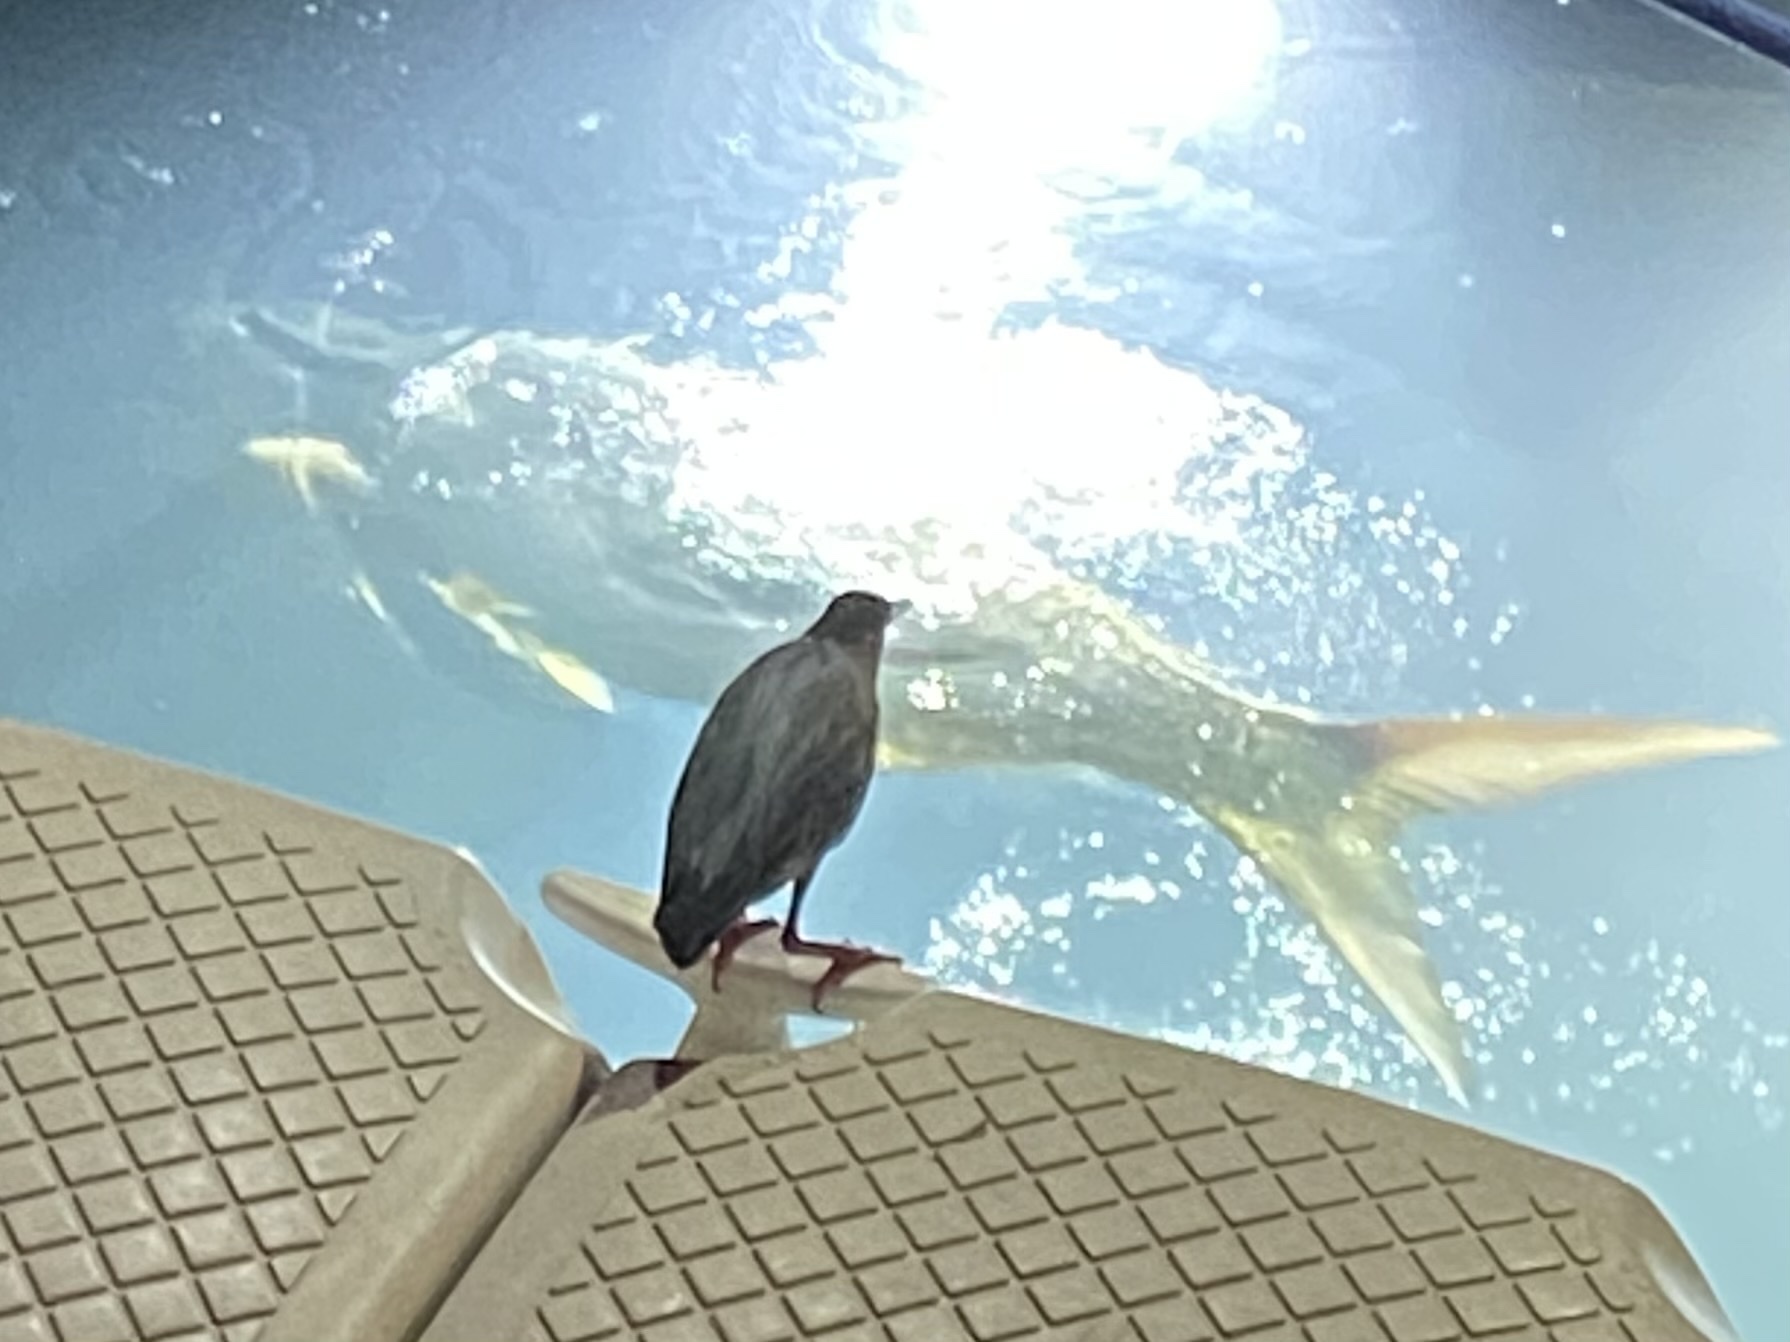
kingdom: Animalia
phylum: Chordata
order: Elopiformes
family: Megalopidae
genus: Megalops
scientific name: Megalops atlanticus
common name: Tarpon
